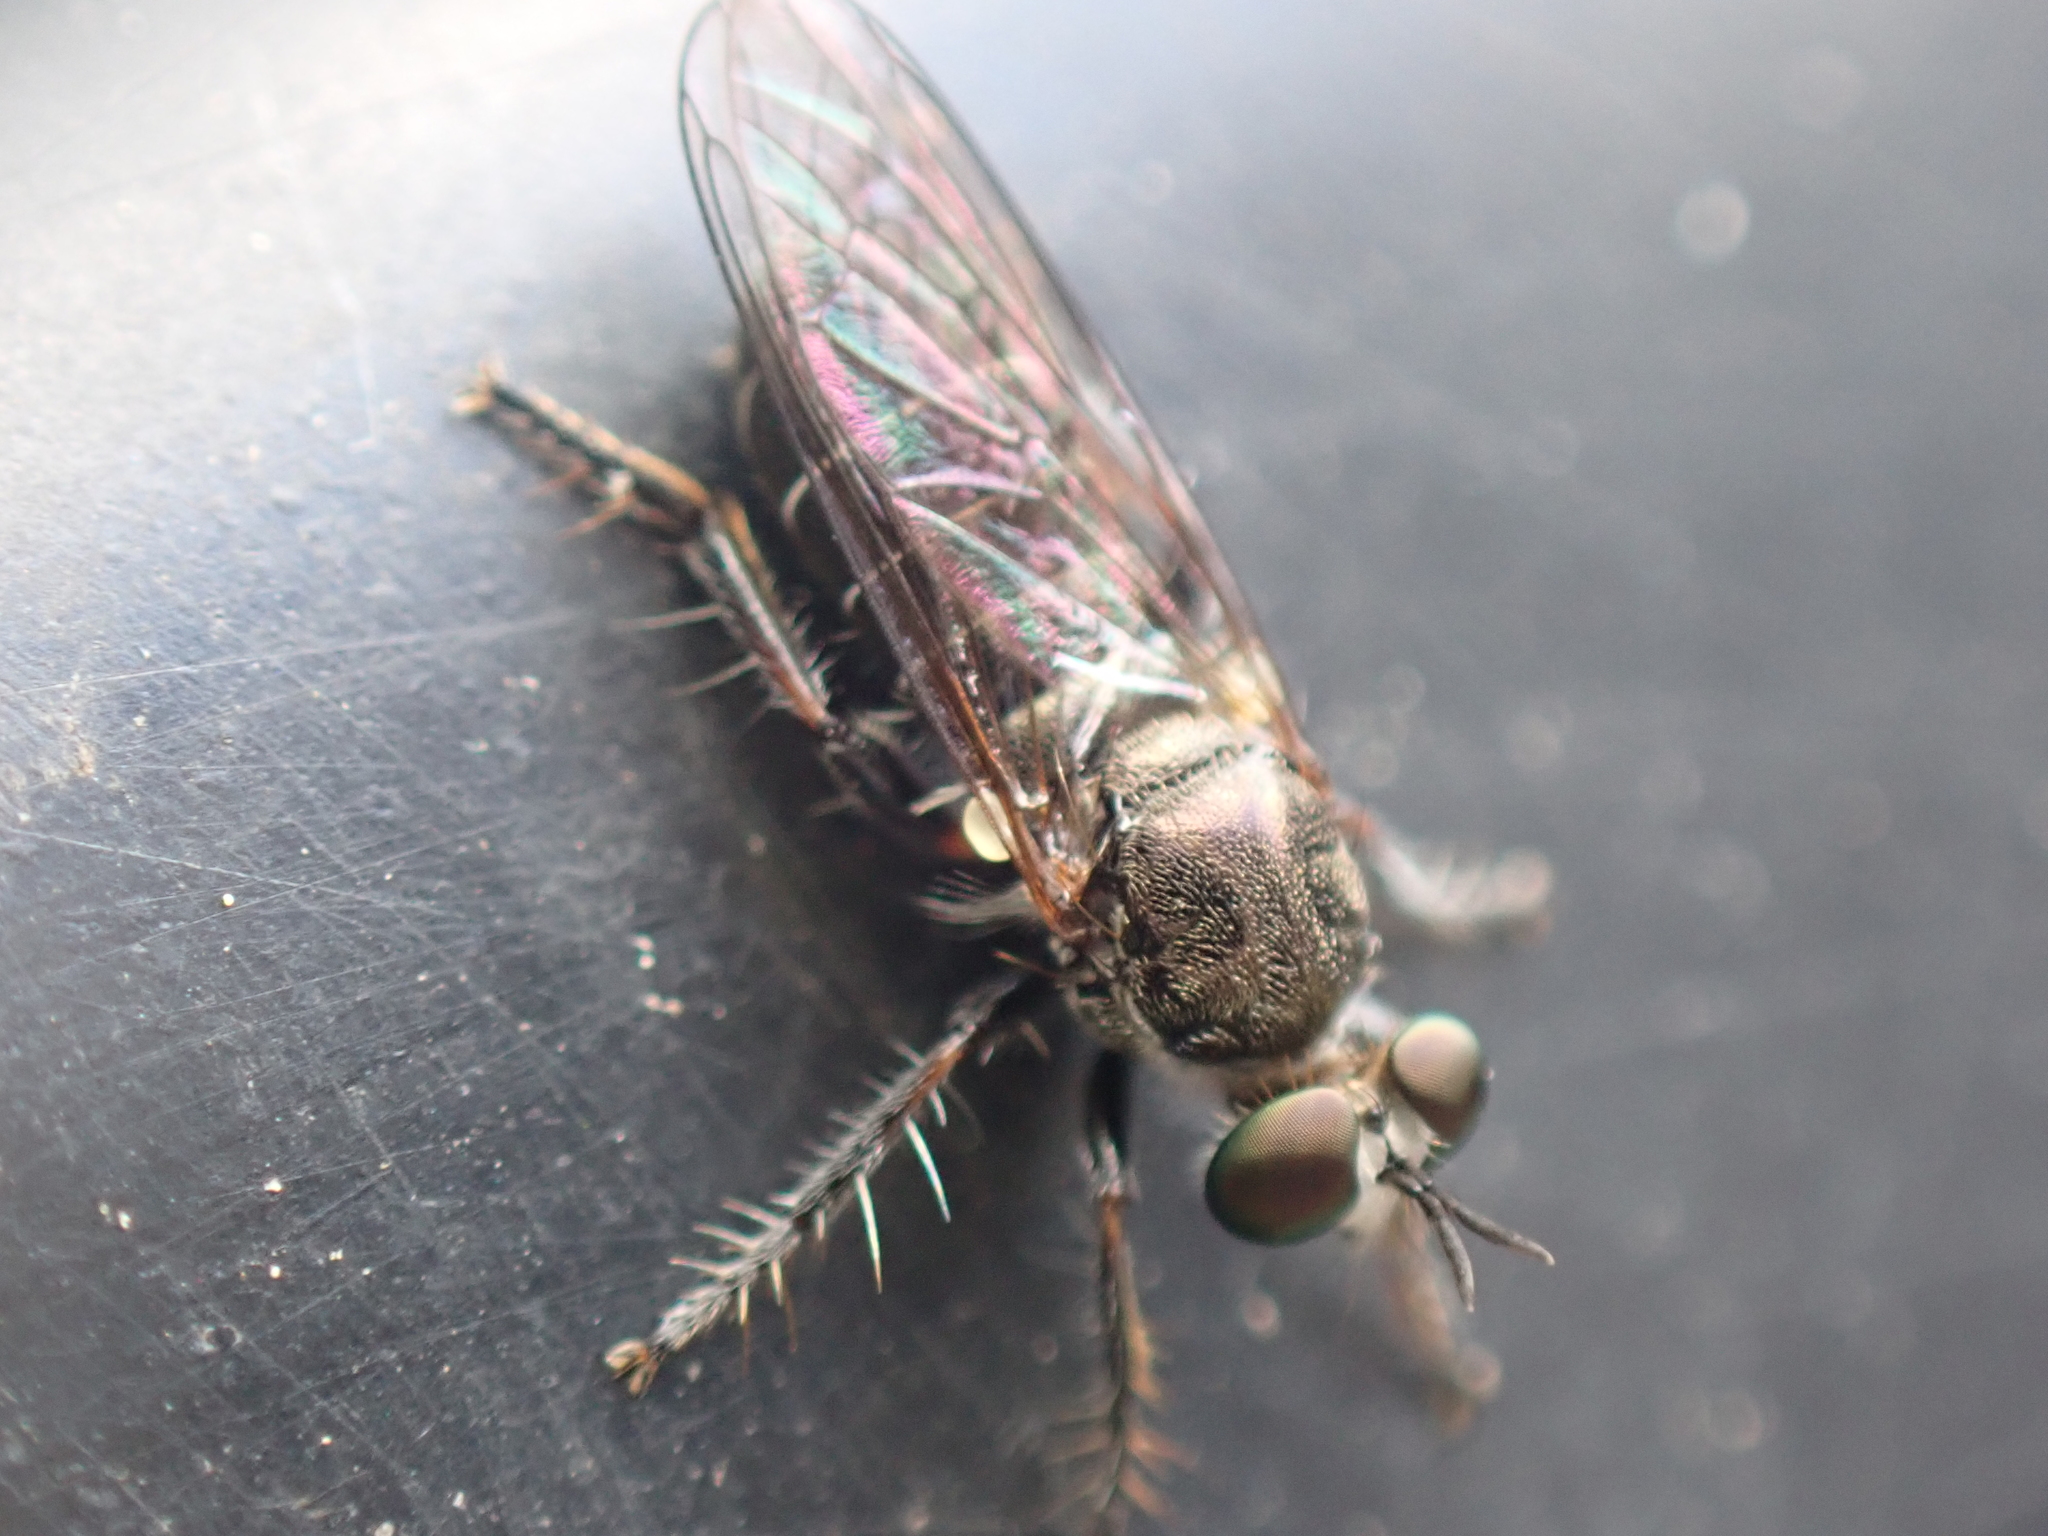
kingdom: Animalia
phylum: Arthropoda
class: Insecta
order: Diptera
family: Asilidae
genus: Atomosia
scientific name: Atomosia puella
